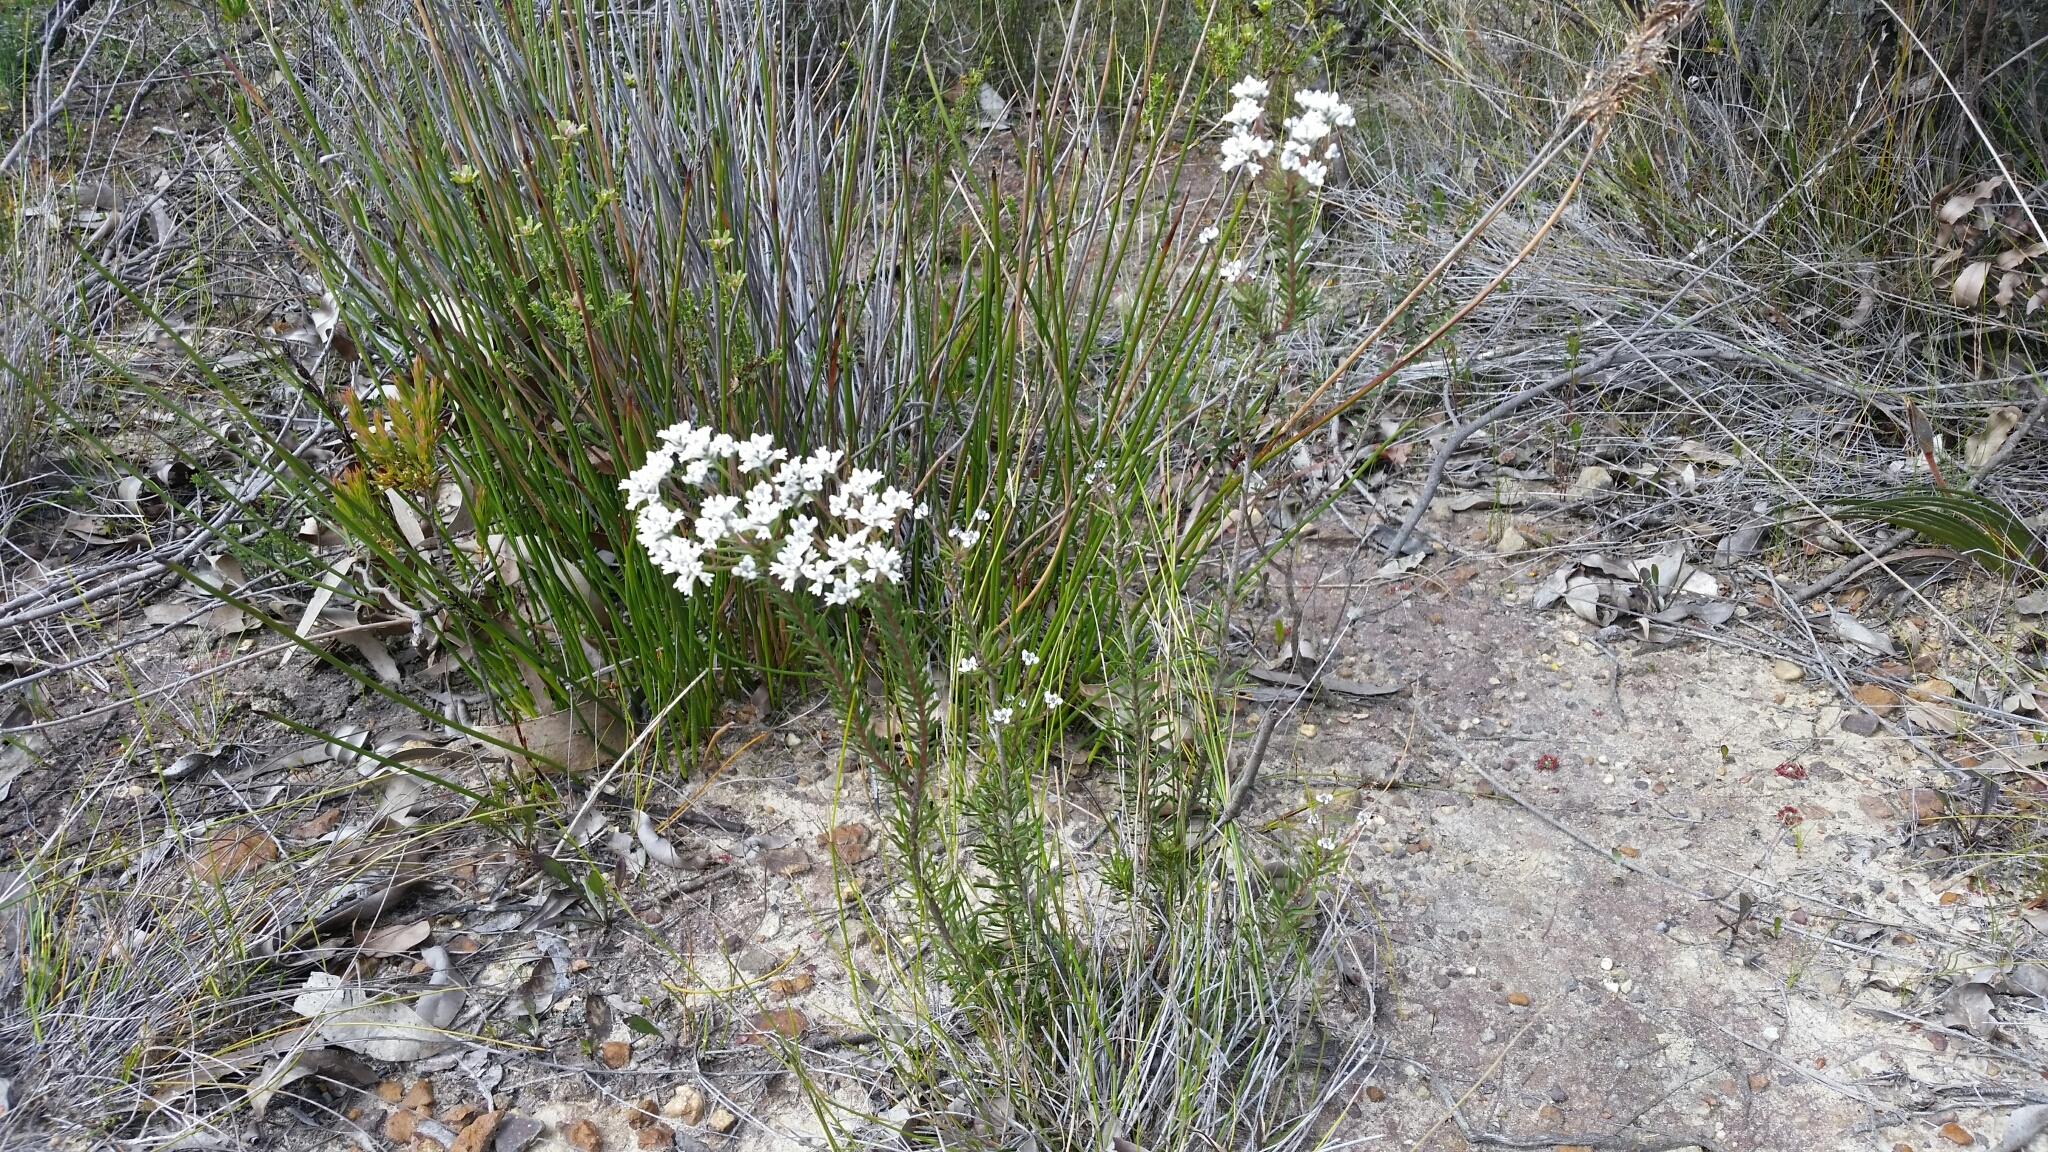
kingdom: Plantae
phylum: Tracheophyta
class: Magnoliopsida
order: Proteales
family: Proteaceae
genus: Conospermum
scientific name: Conospermum ericifolium
